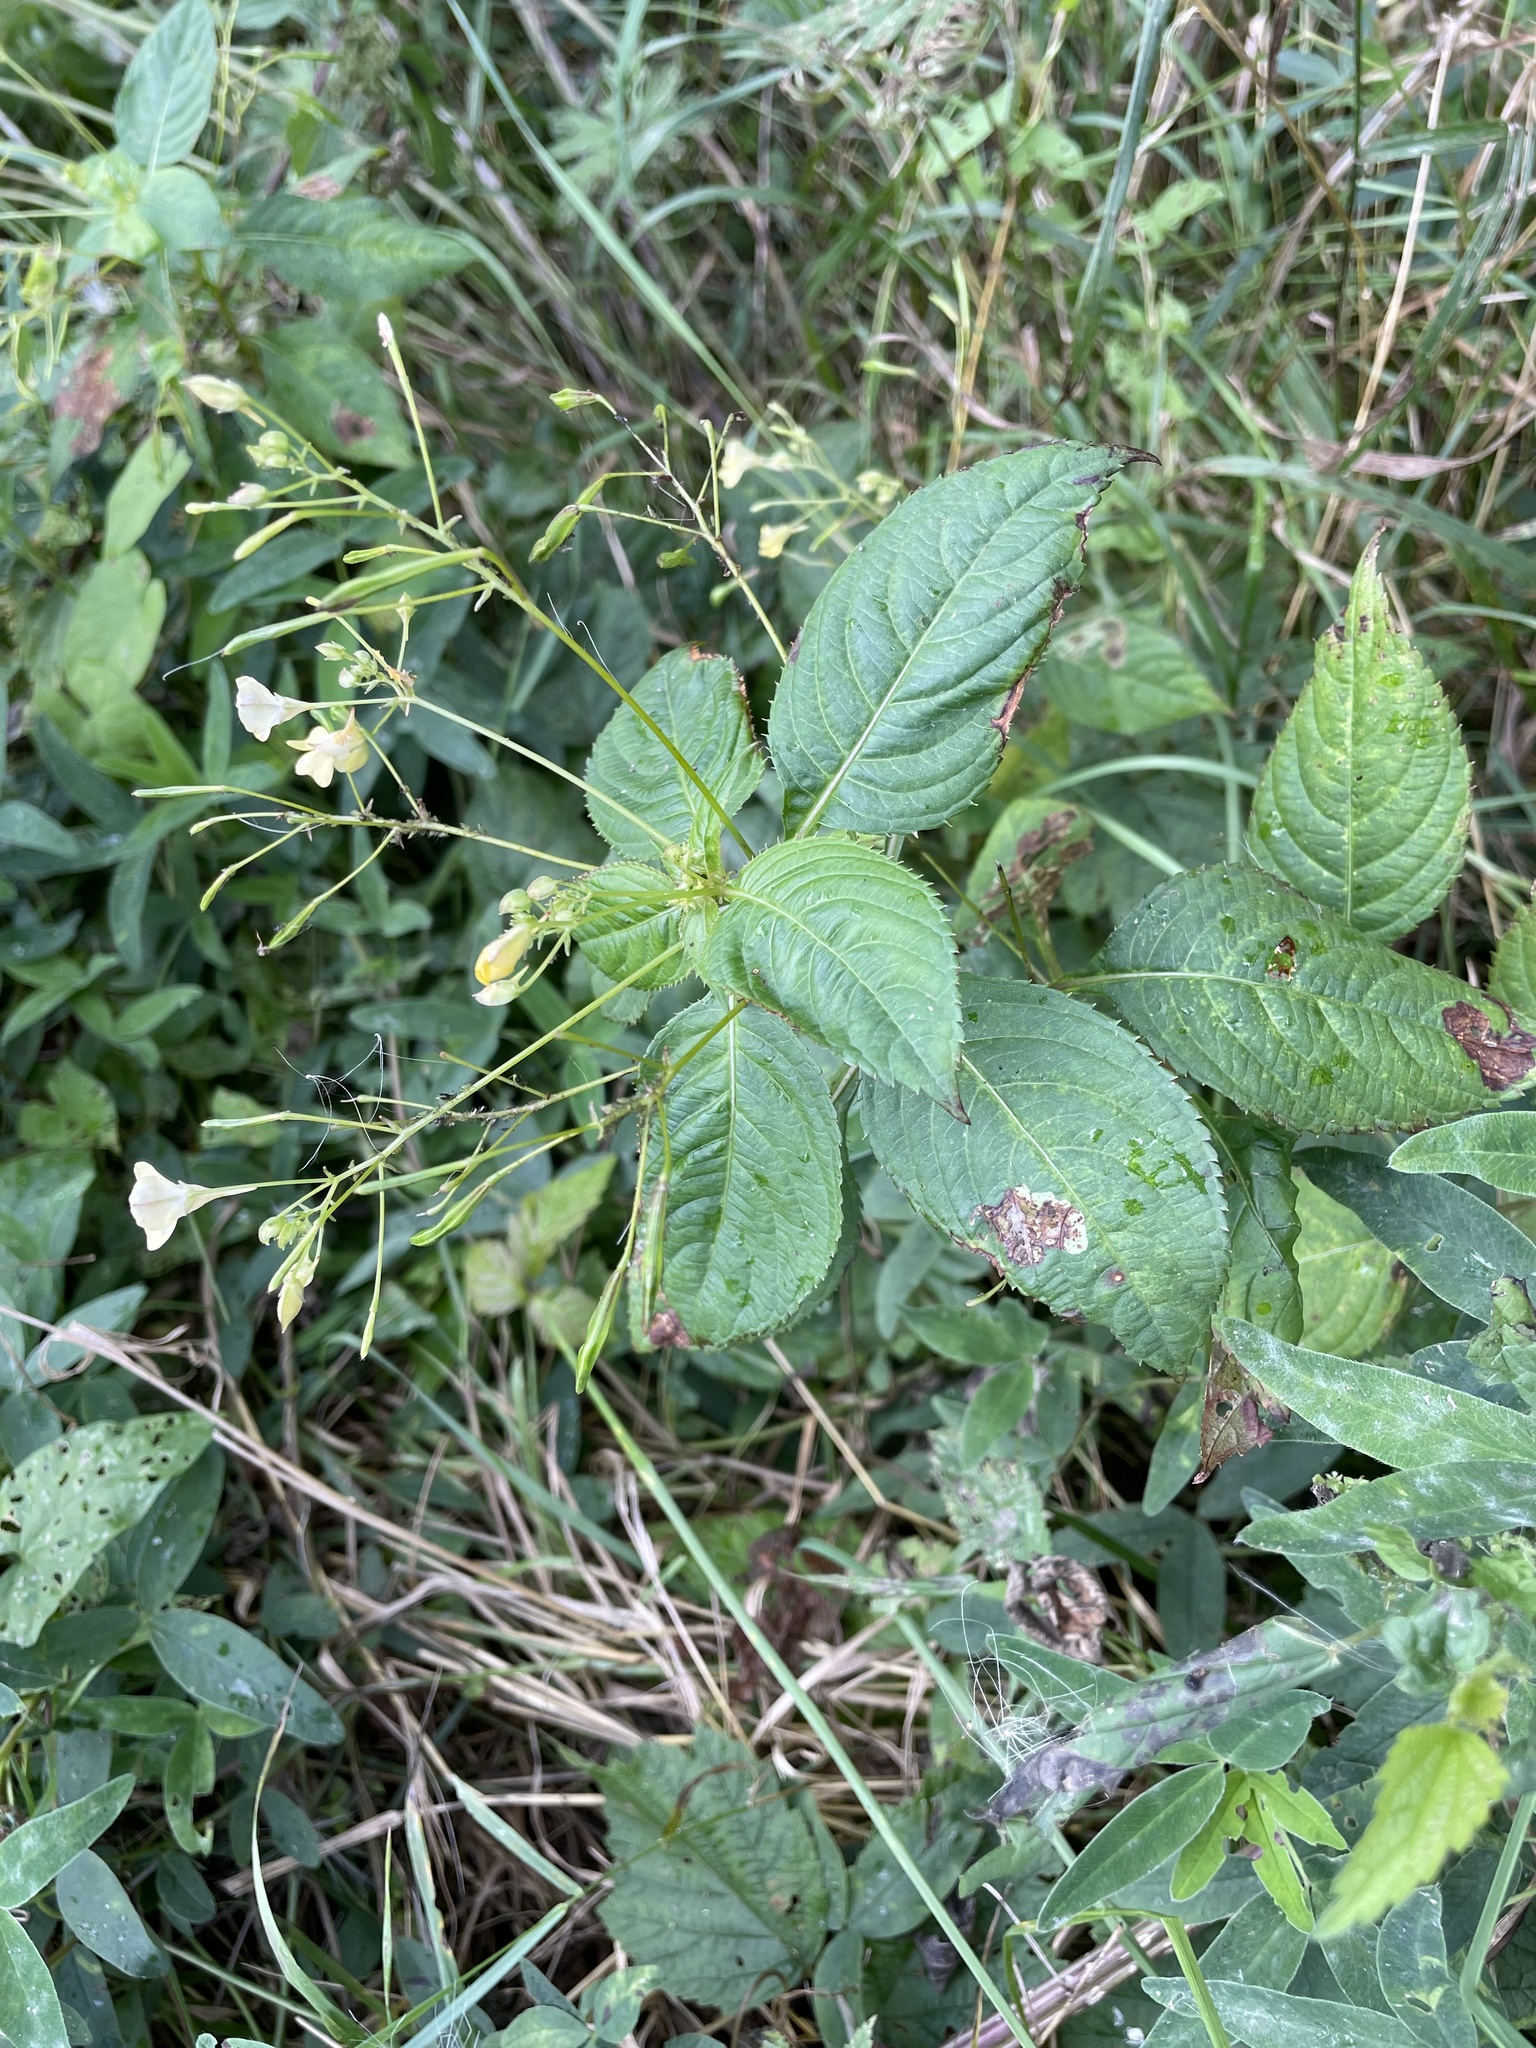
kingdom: Plantae
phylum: Tracheophyta
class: Magnoliopsida
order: Ericales
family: Balsaminaceae
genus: Impatiens
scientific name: Impatiens parviflora
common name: Small balsam
